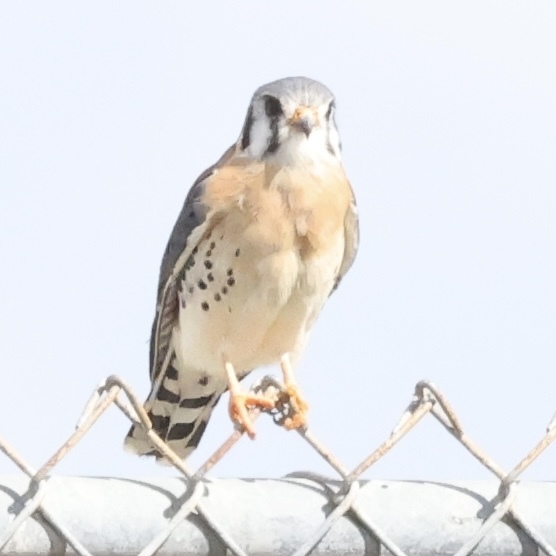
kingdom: Animalia
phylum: Chordata
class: Aves
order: Falconiformes
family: Falconidae
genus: Falco
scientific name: Falco sparverius
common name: American kestrel
